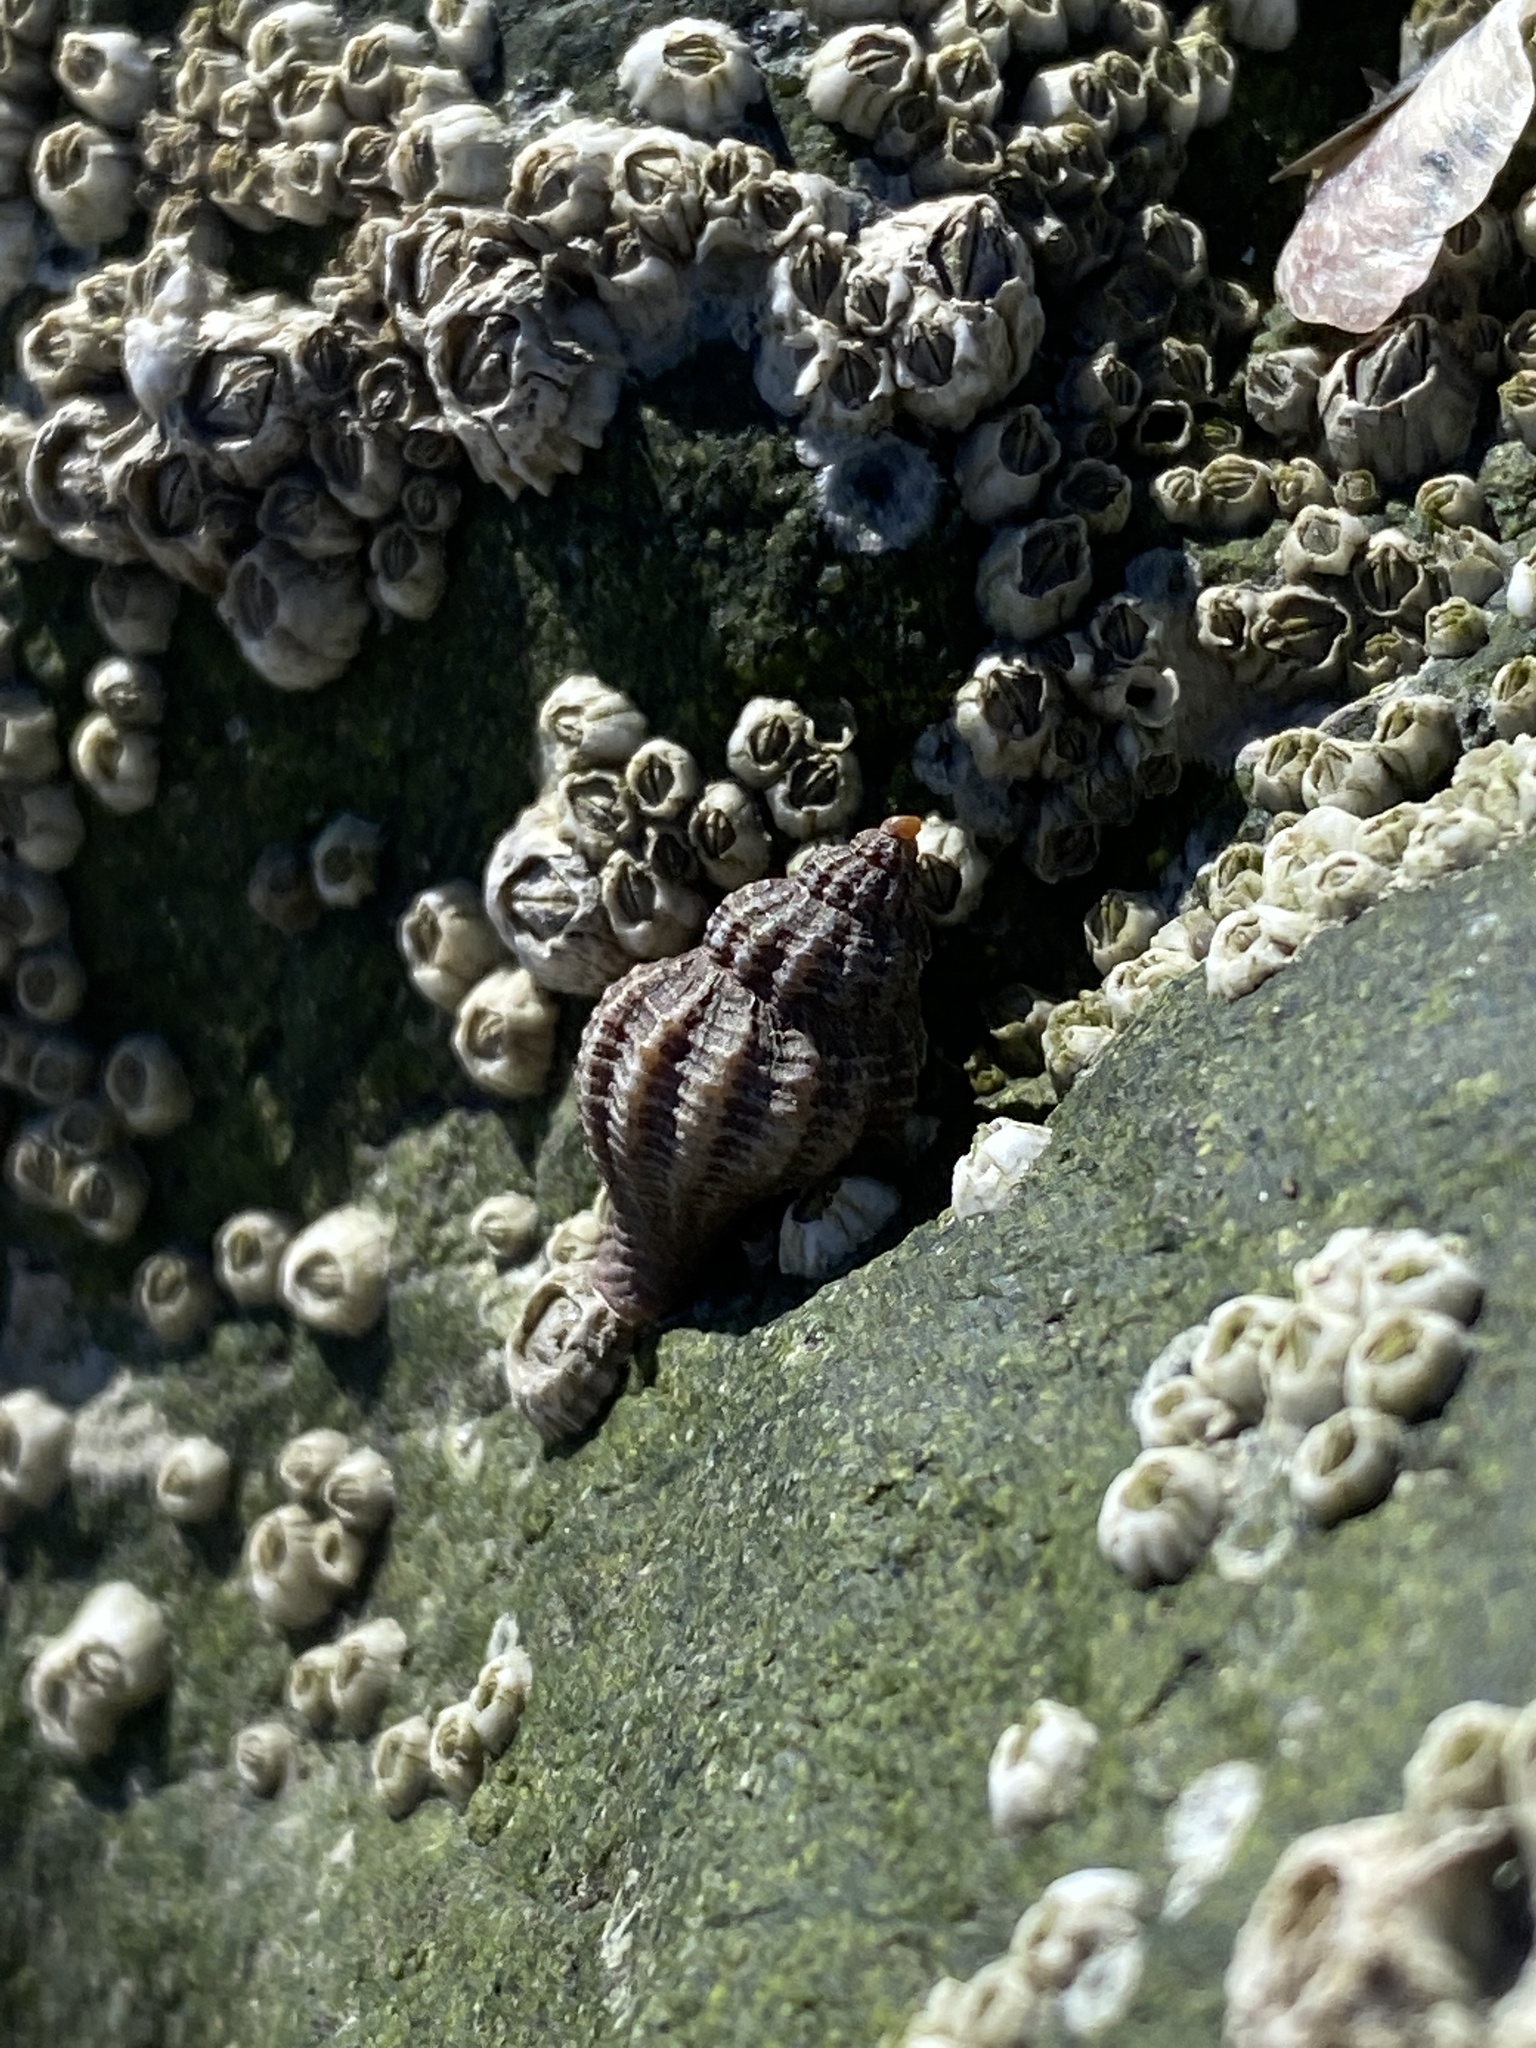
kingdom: Animalia
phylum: Mollusca
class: Gastropoda
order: Neogastropoda
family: Muricidae
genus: Urosalpinx
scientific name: Urosalpinx cinerea
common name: American sting winkle
